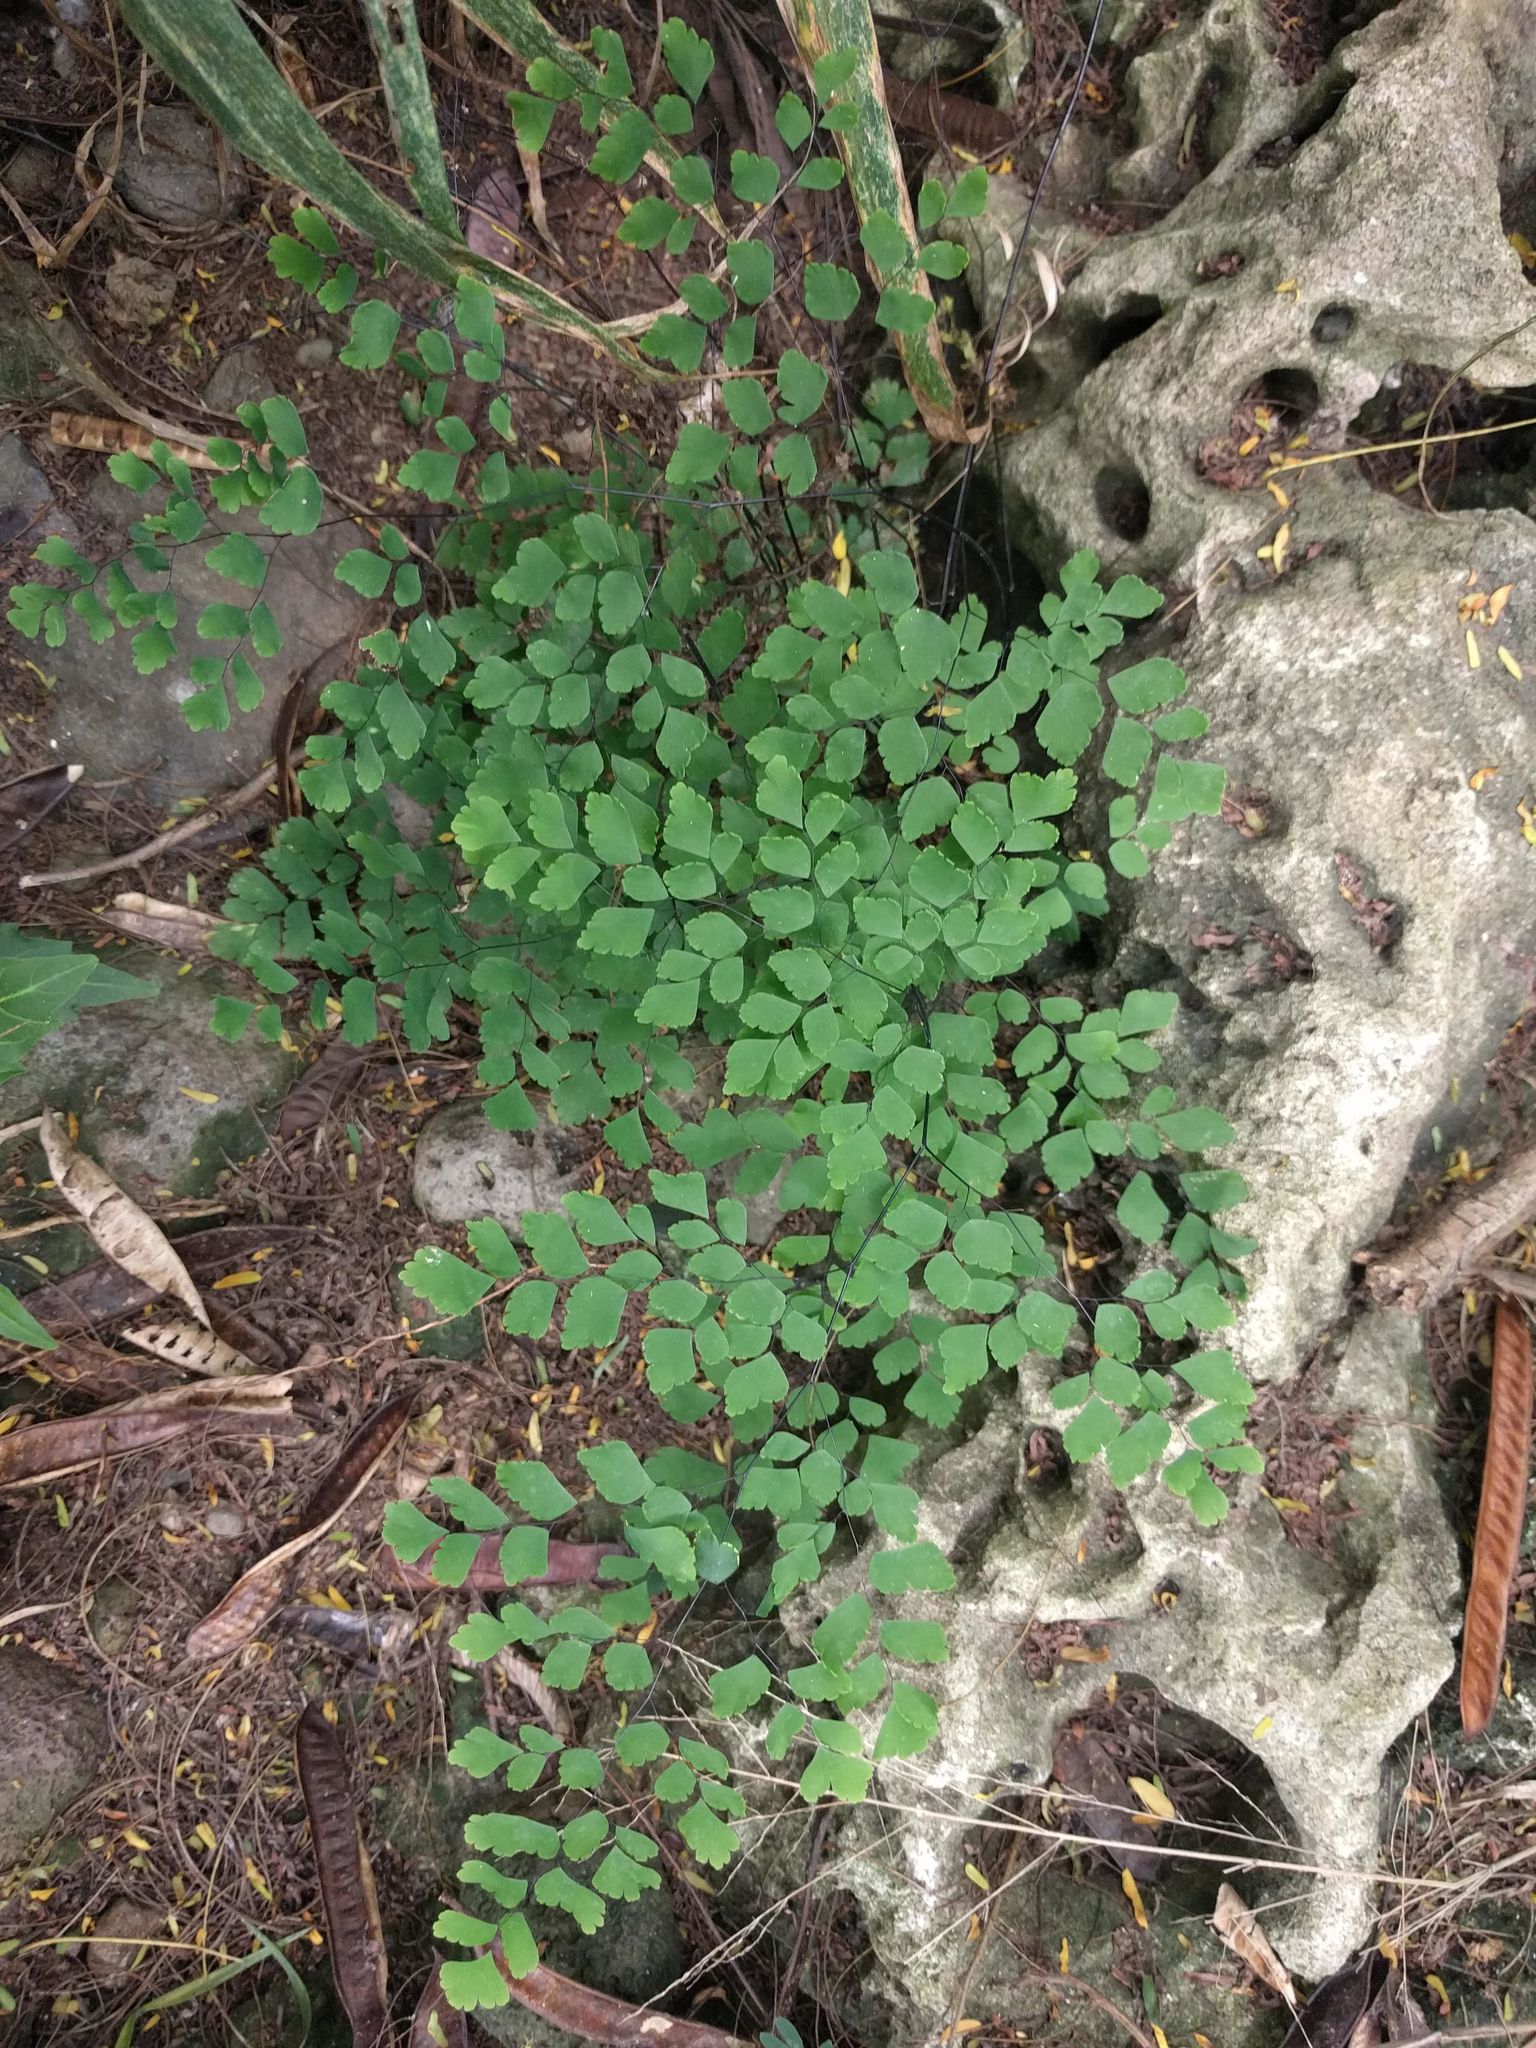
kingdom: Plantae
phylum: Tracheophyta
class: Polypodiopsida
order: Polypodiales
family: Pteridaceae
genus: Adiantum
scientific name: Adiantum tenerum
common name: Fan maidenhair
